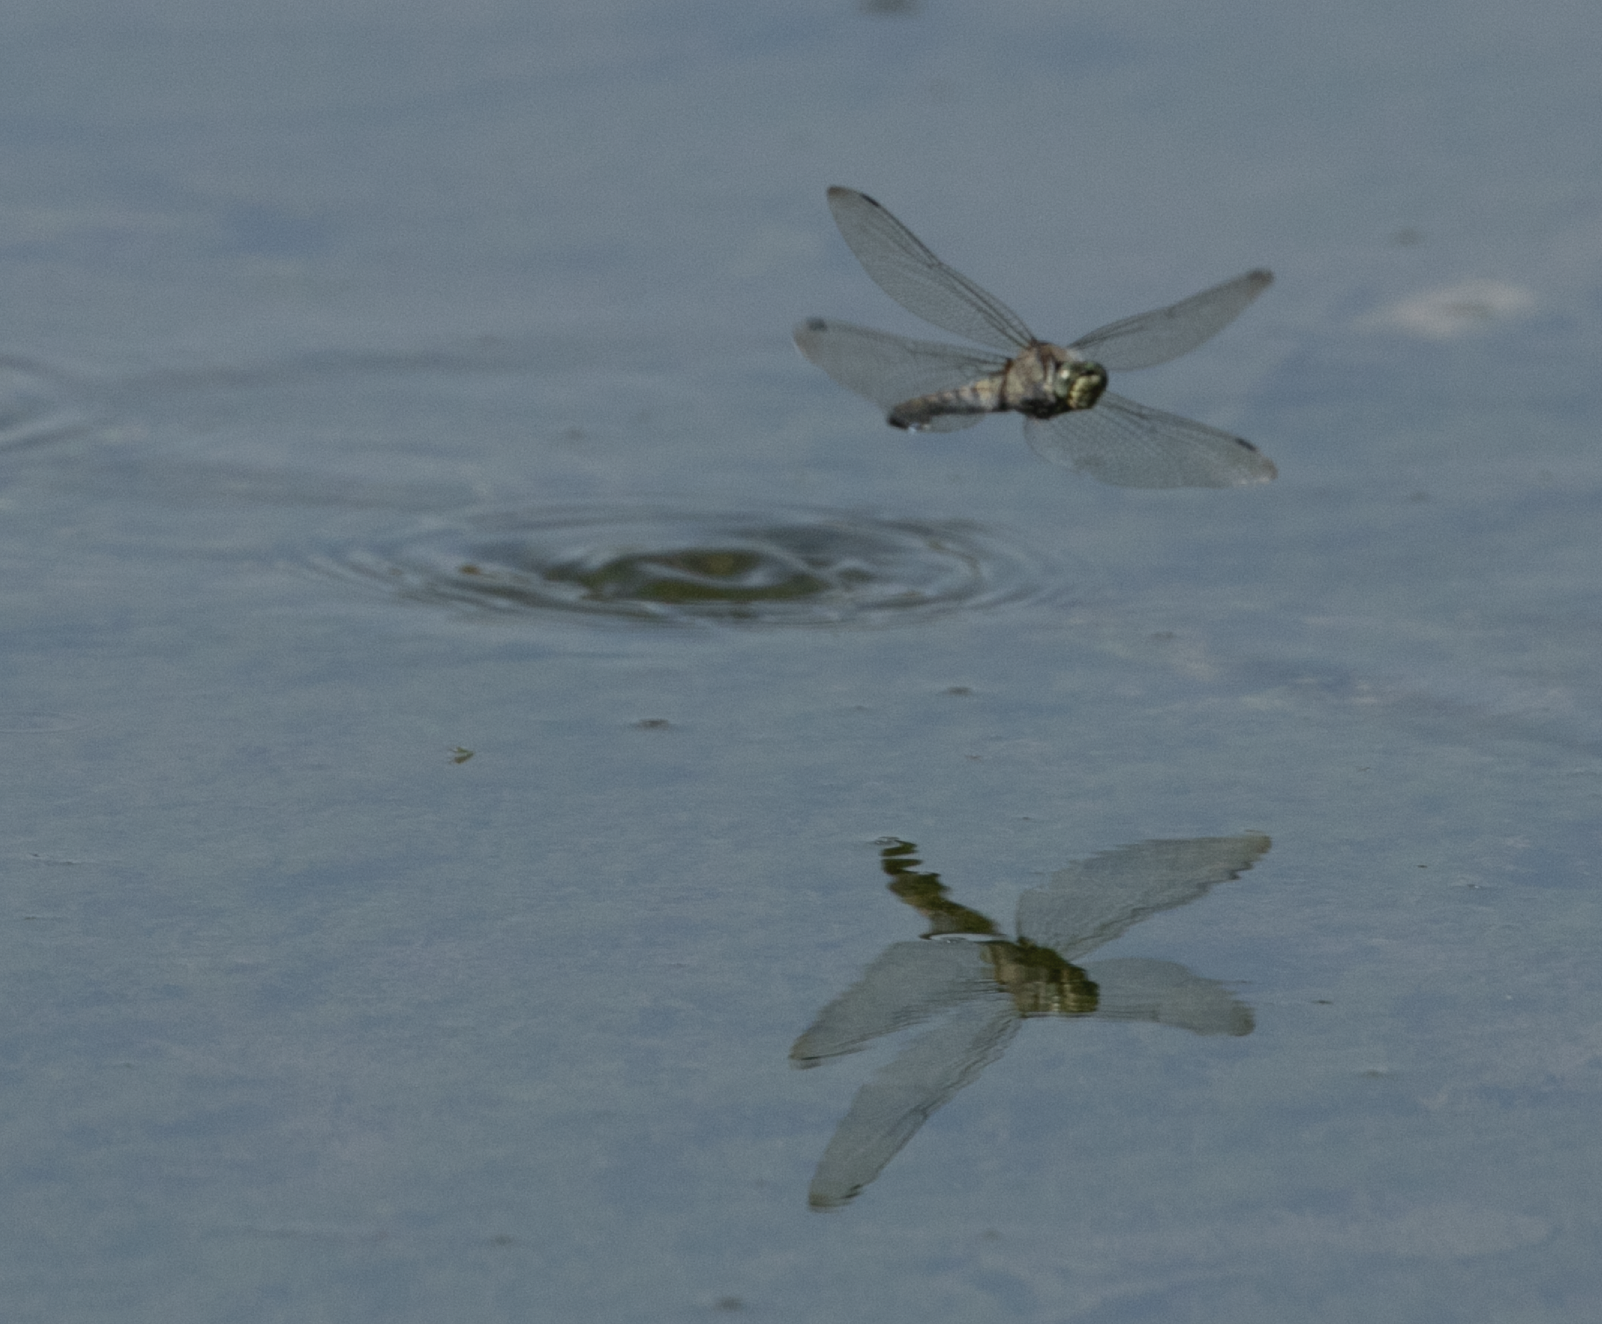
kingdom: Animalia
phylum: Arthropoda
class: Insecta
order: Odonata
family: Libellulidae
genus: Orthetrum
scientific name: Orthetrum cancellatum
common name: Black-tailed skimmer
